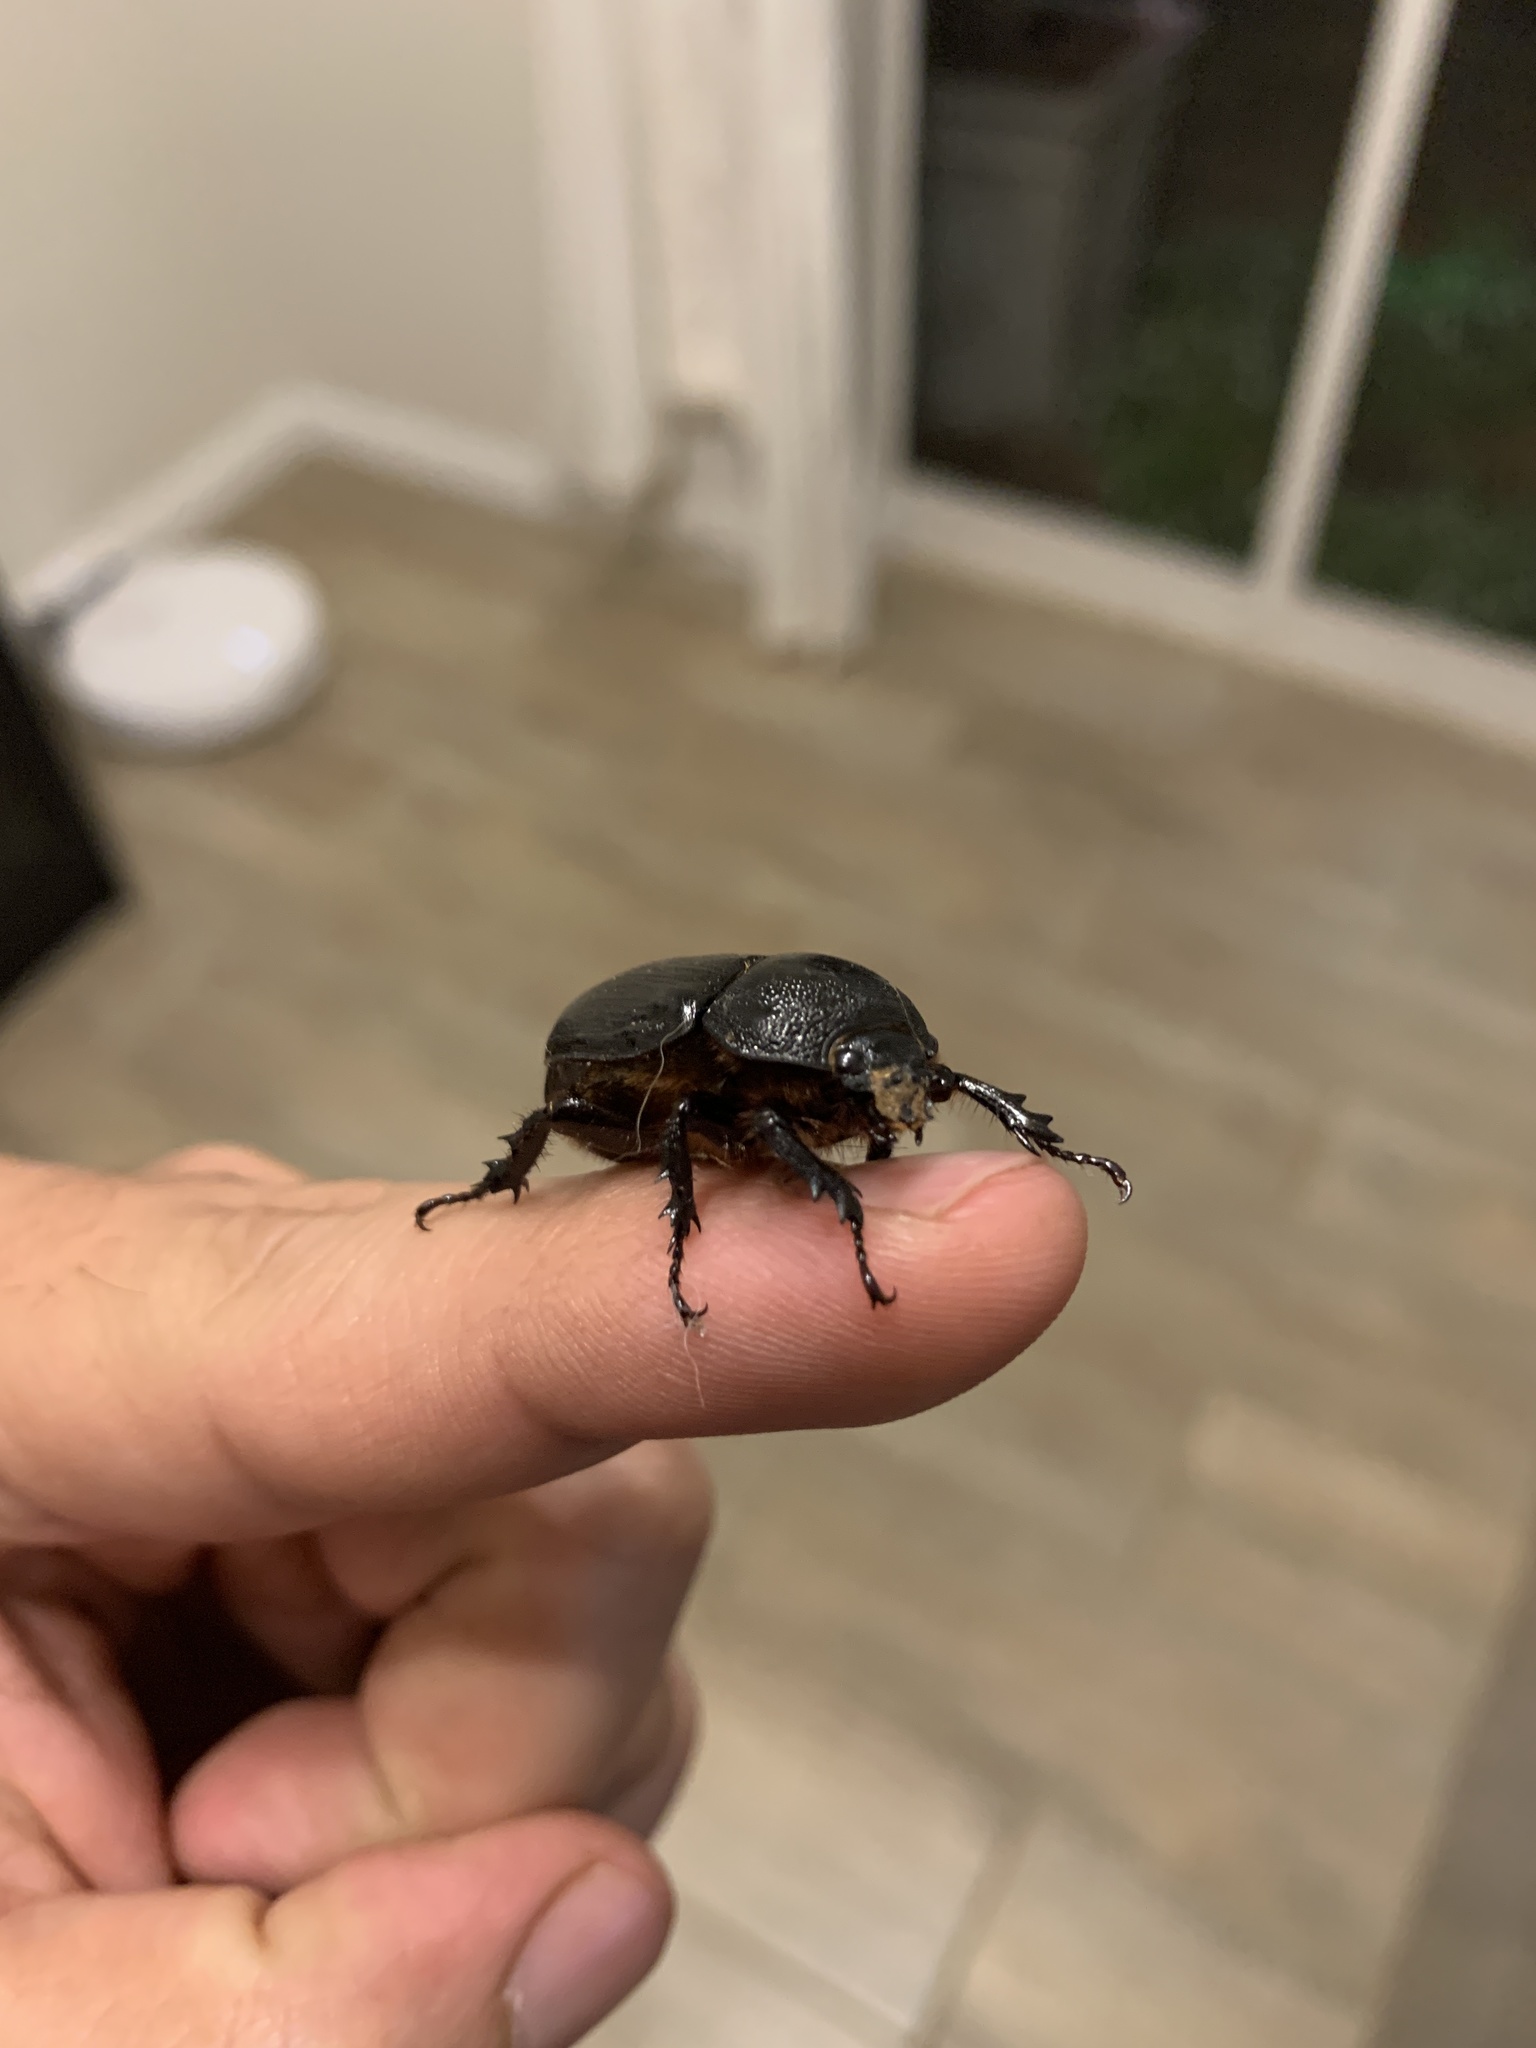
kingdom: Animalia
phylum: Arthropoda
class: Insecta
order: Coleoptera
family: Scarabaeidae
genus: Cyphonistes
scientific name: Cyphonistes vallatus
